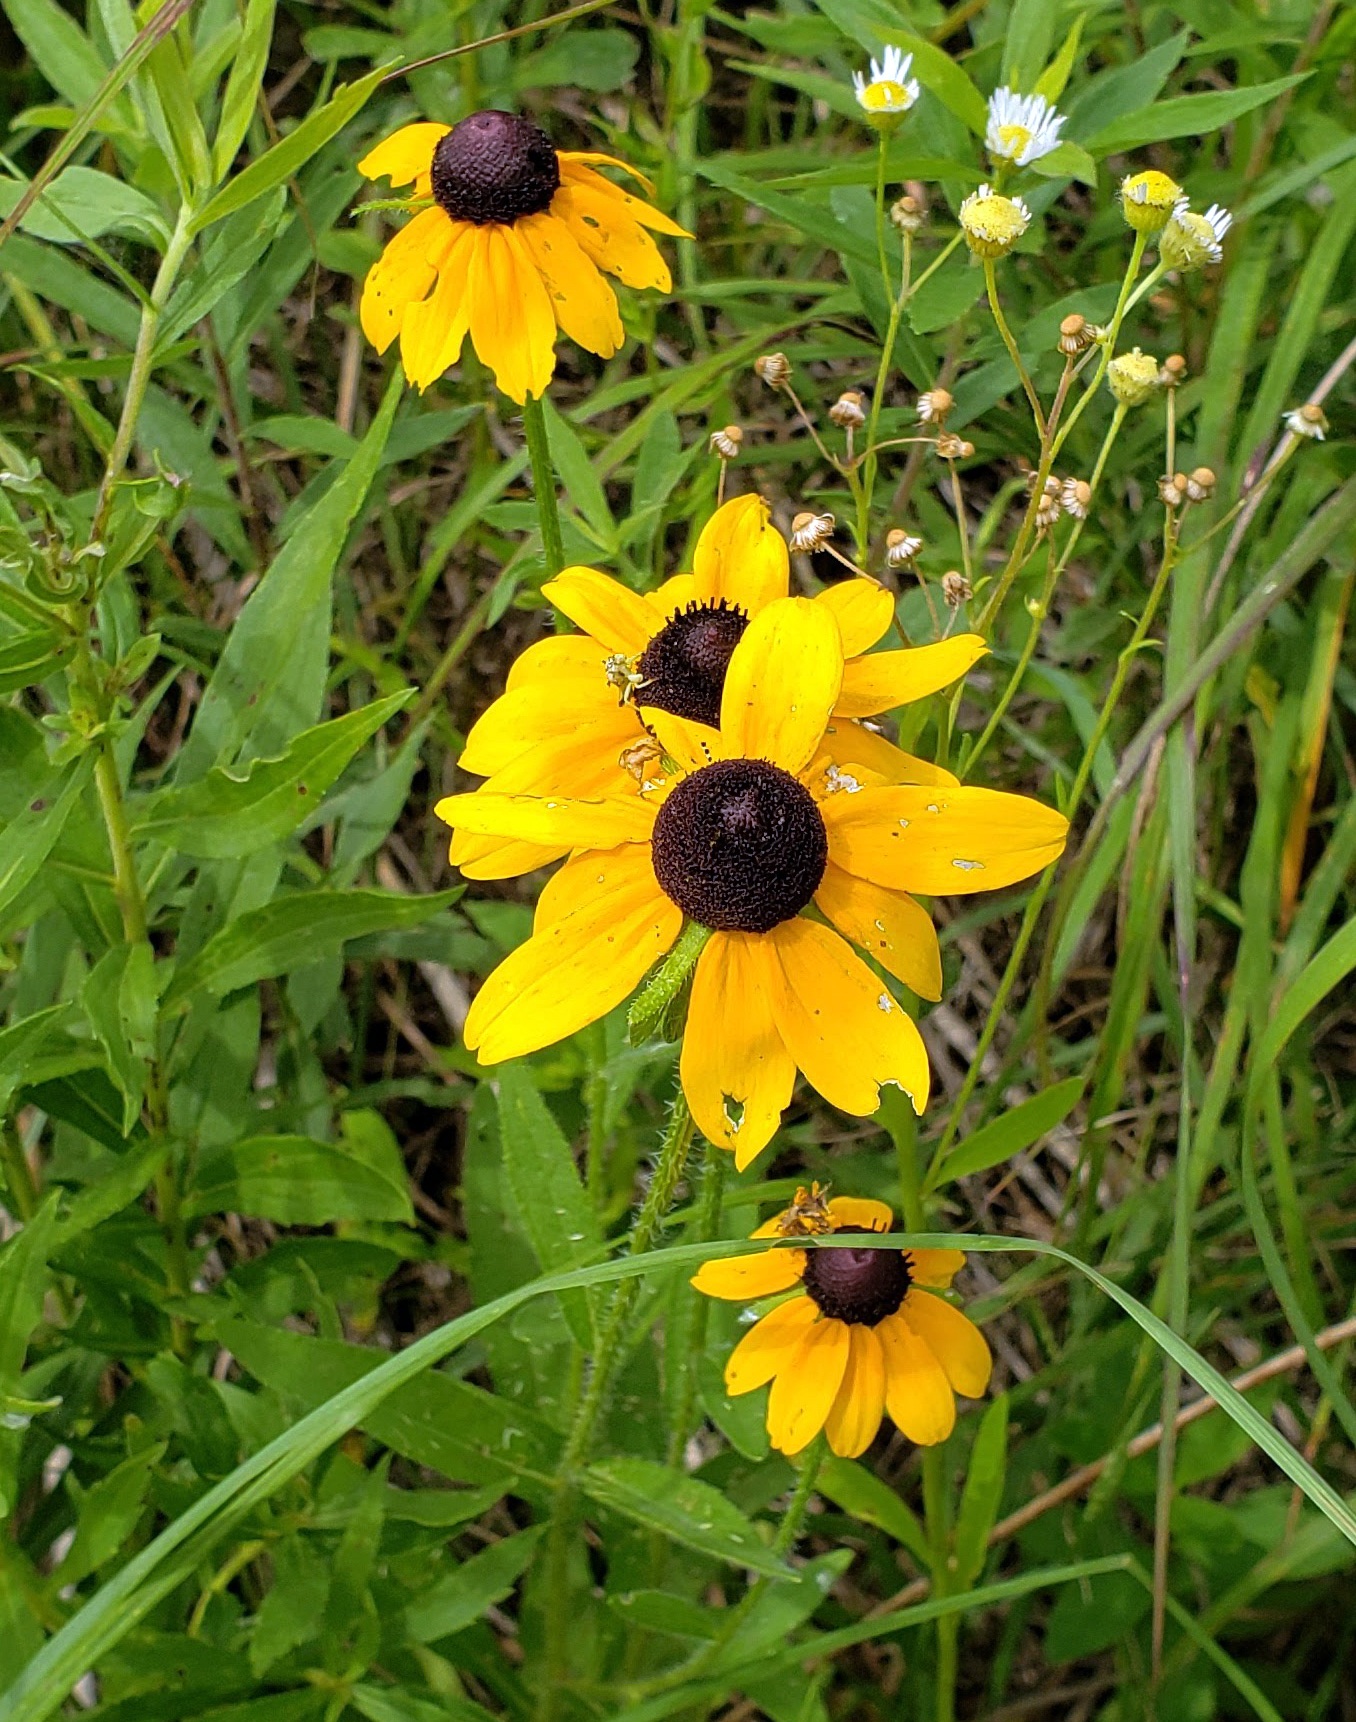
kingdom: Plantae
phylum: Tracheophyta
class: Magnoliopsida
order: Asterales
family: Asteraceae
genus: Rudbeckia
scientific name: Rudbeckia hirta
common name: Black-eyed-susan
